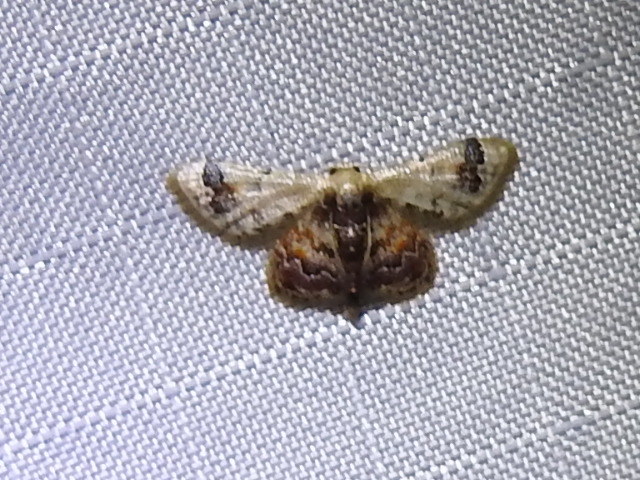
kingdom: Animalia
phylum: Arthropoda
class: Insecta
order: Lepidoptera
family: Geometridae
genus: Idaea
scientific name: Idaea asceta
